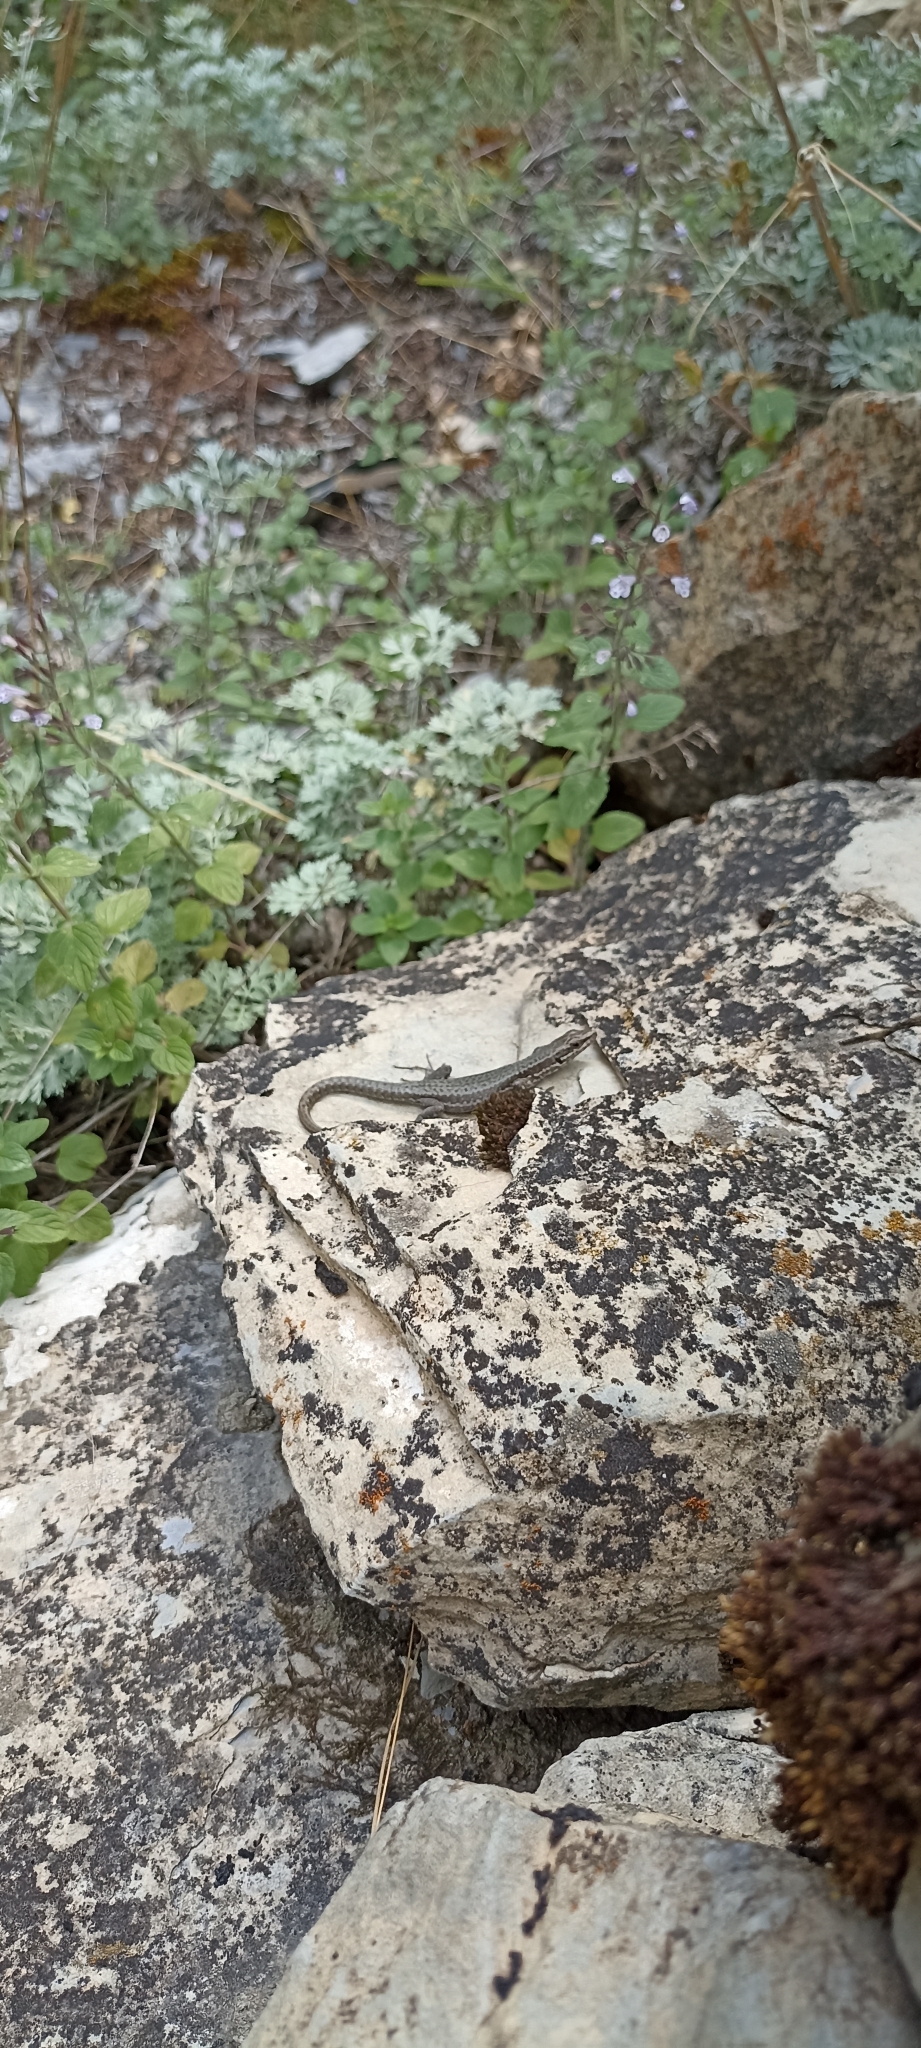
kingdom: Animalia
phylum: Chordata
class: Squamata
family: Lacertidae
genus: Podarcis
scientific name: Podarcis muralis
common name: Common wall lizard
